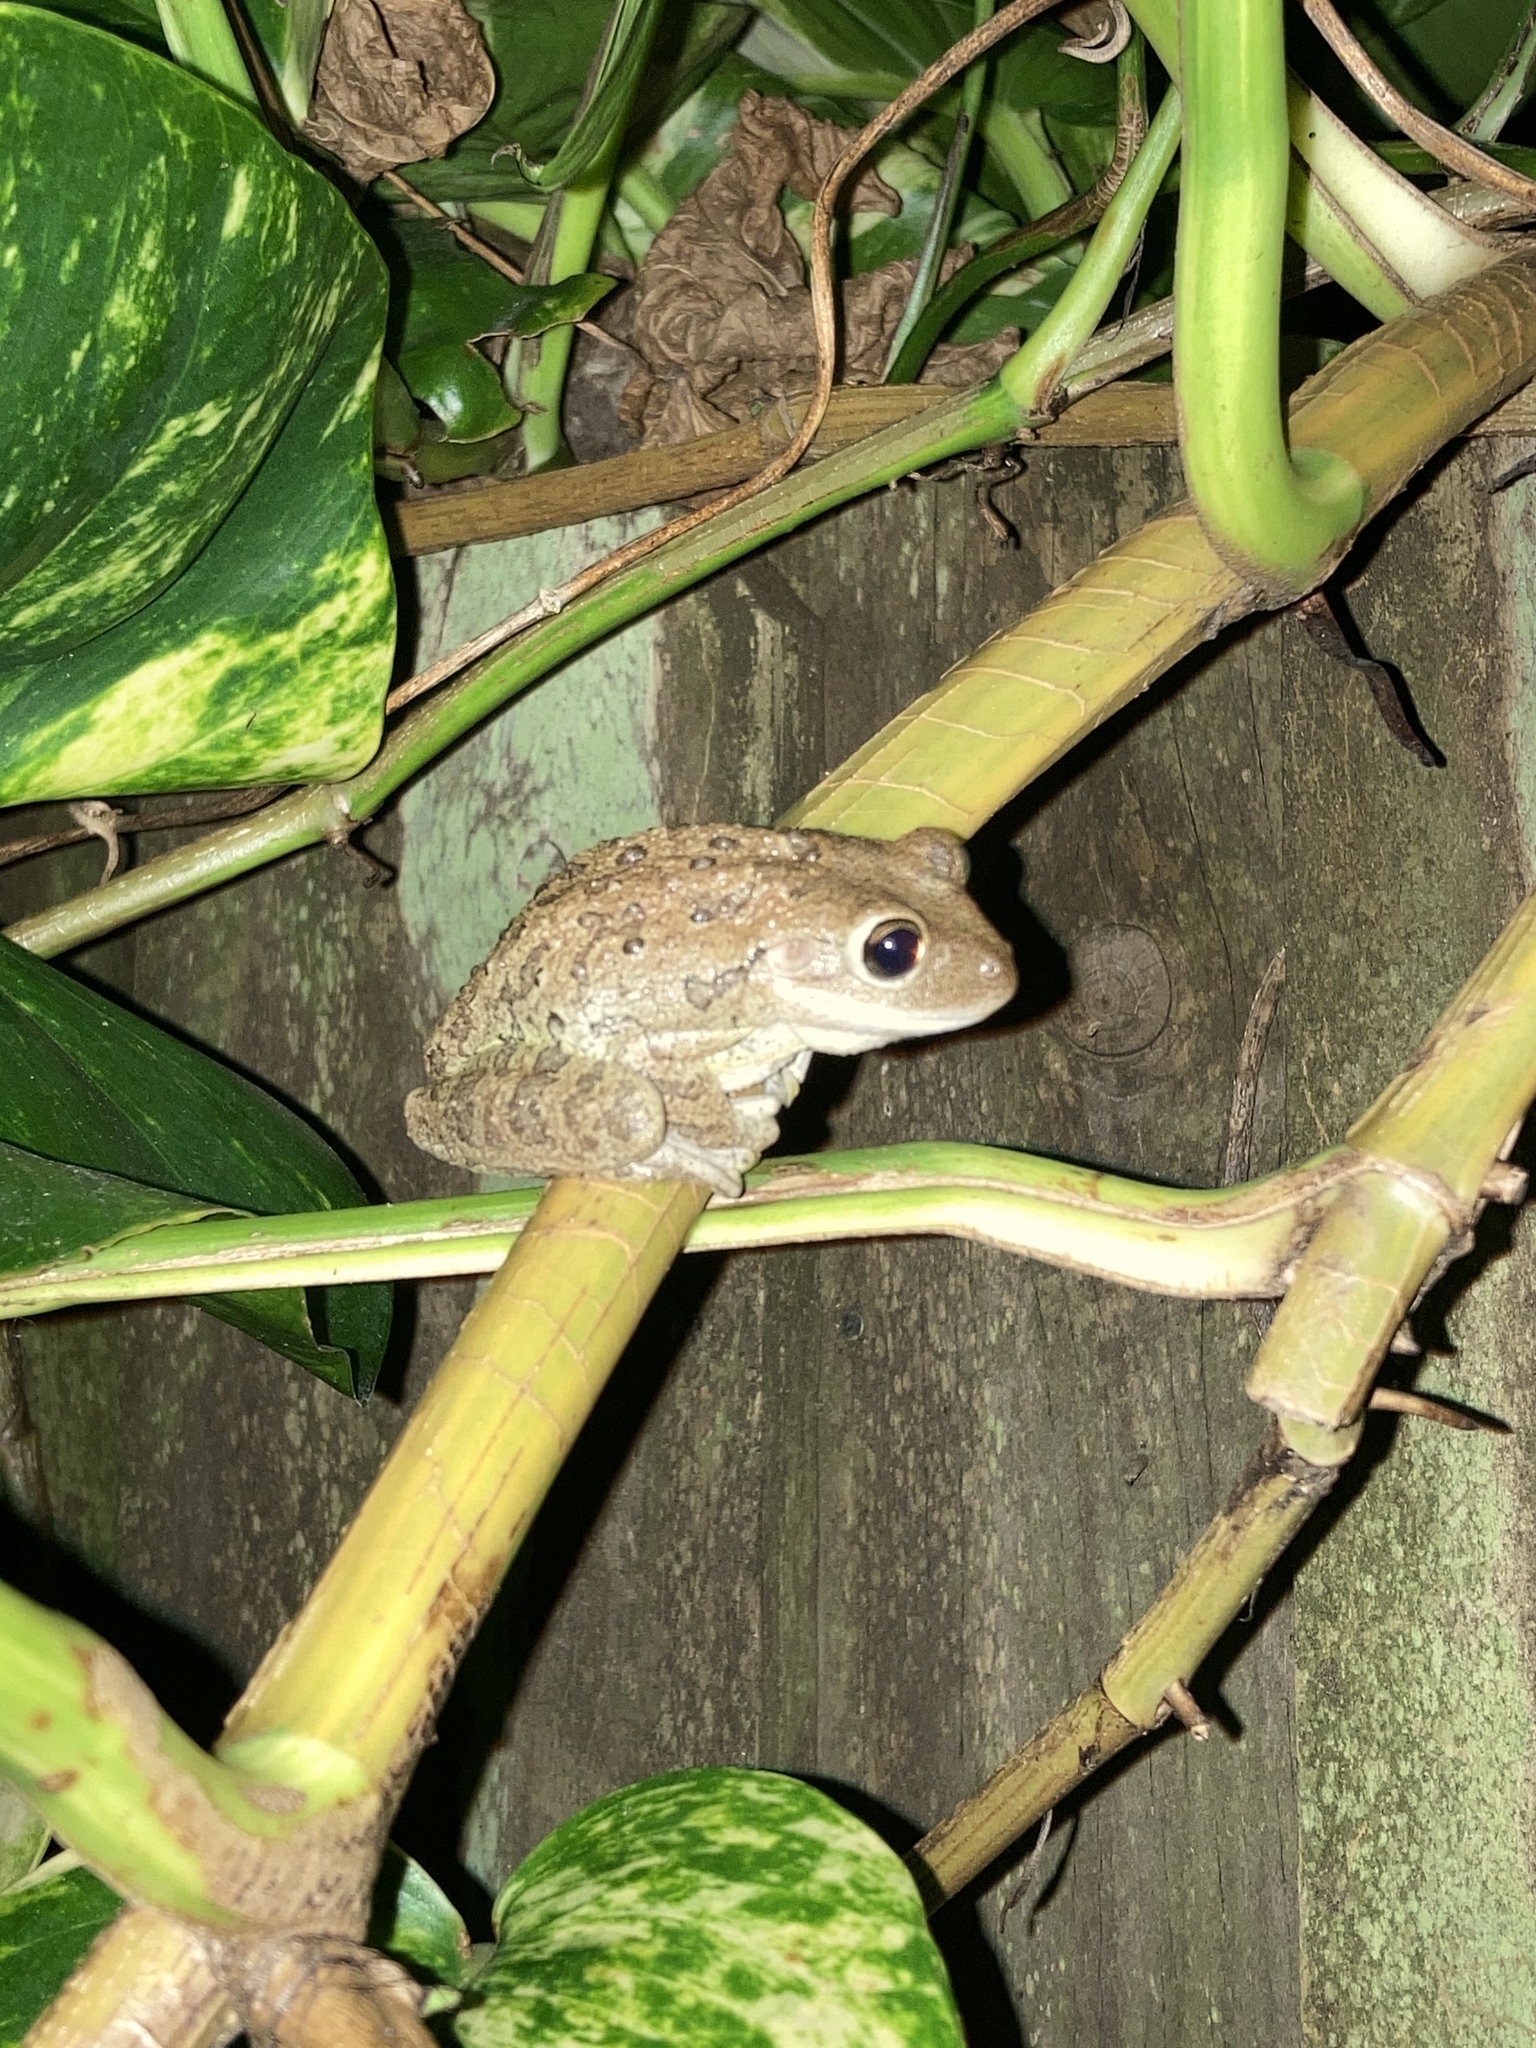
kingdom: Animalia
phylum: Chordata
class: Amphibia
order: Anura
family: Hylidae
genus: Osteopilus
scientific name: Osteopilus septentrionalis
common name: Cuban treefrog
